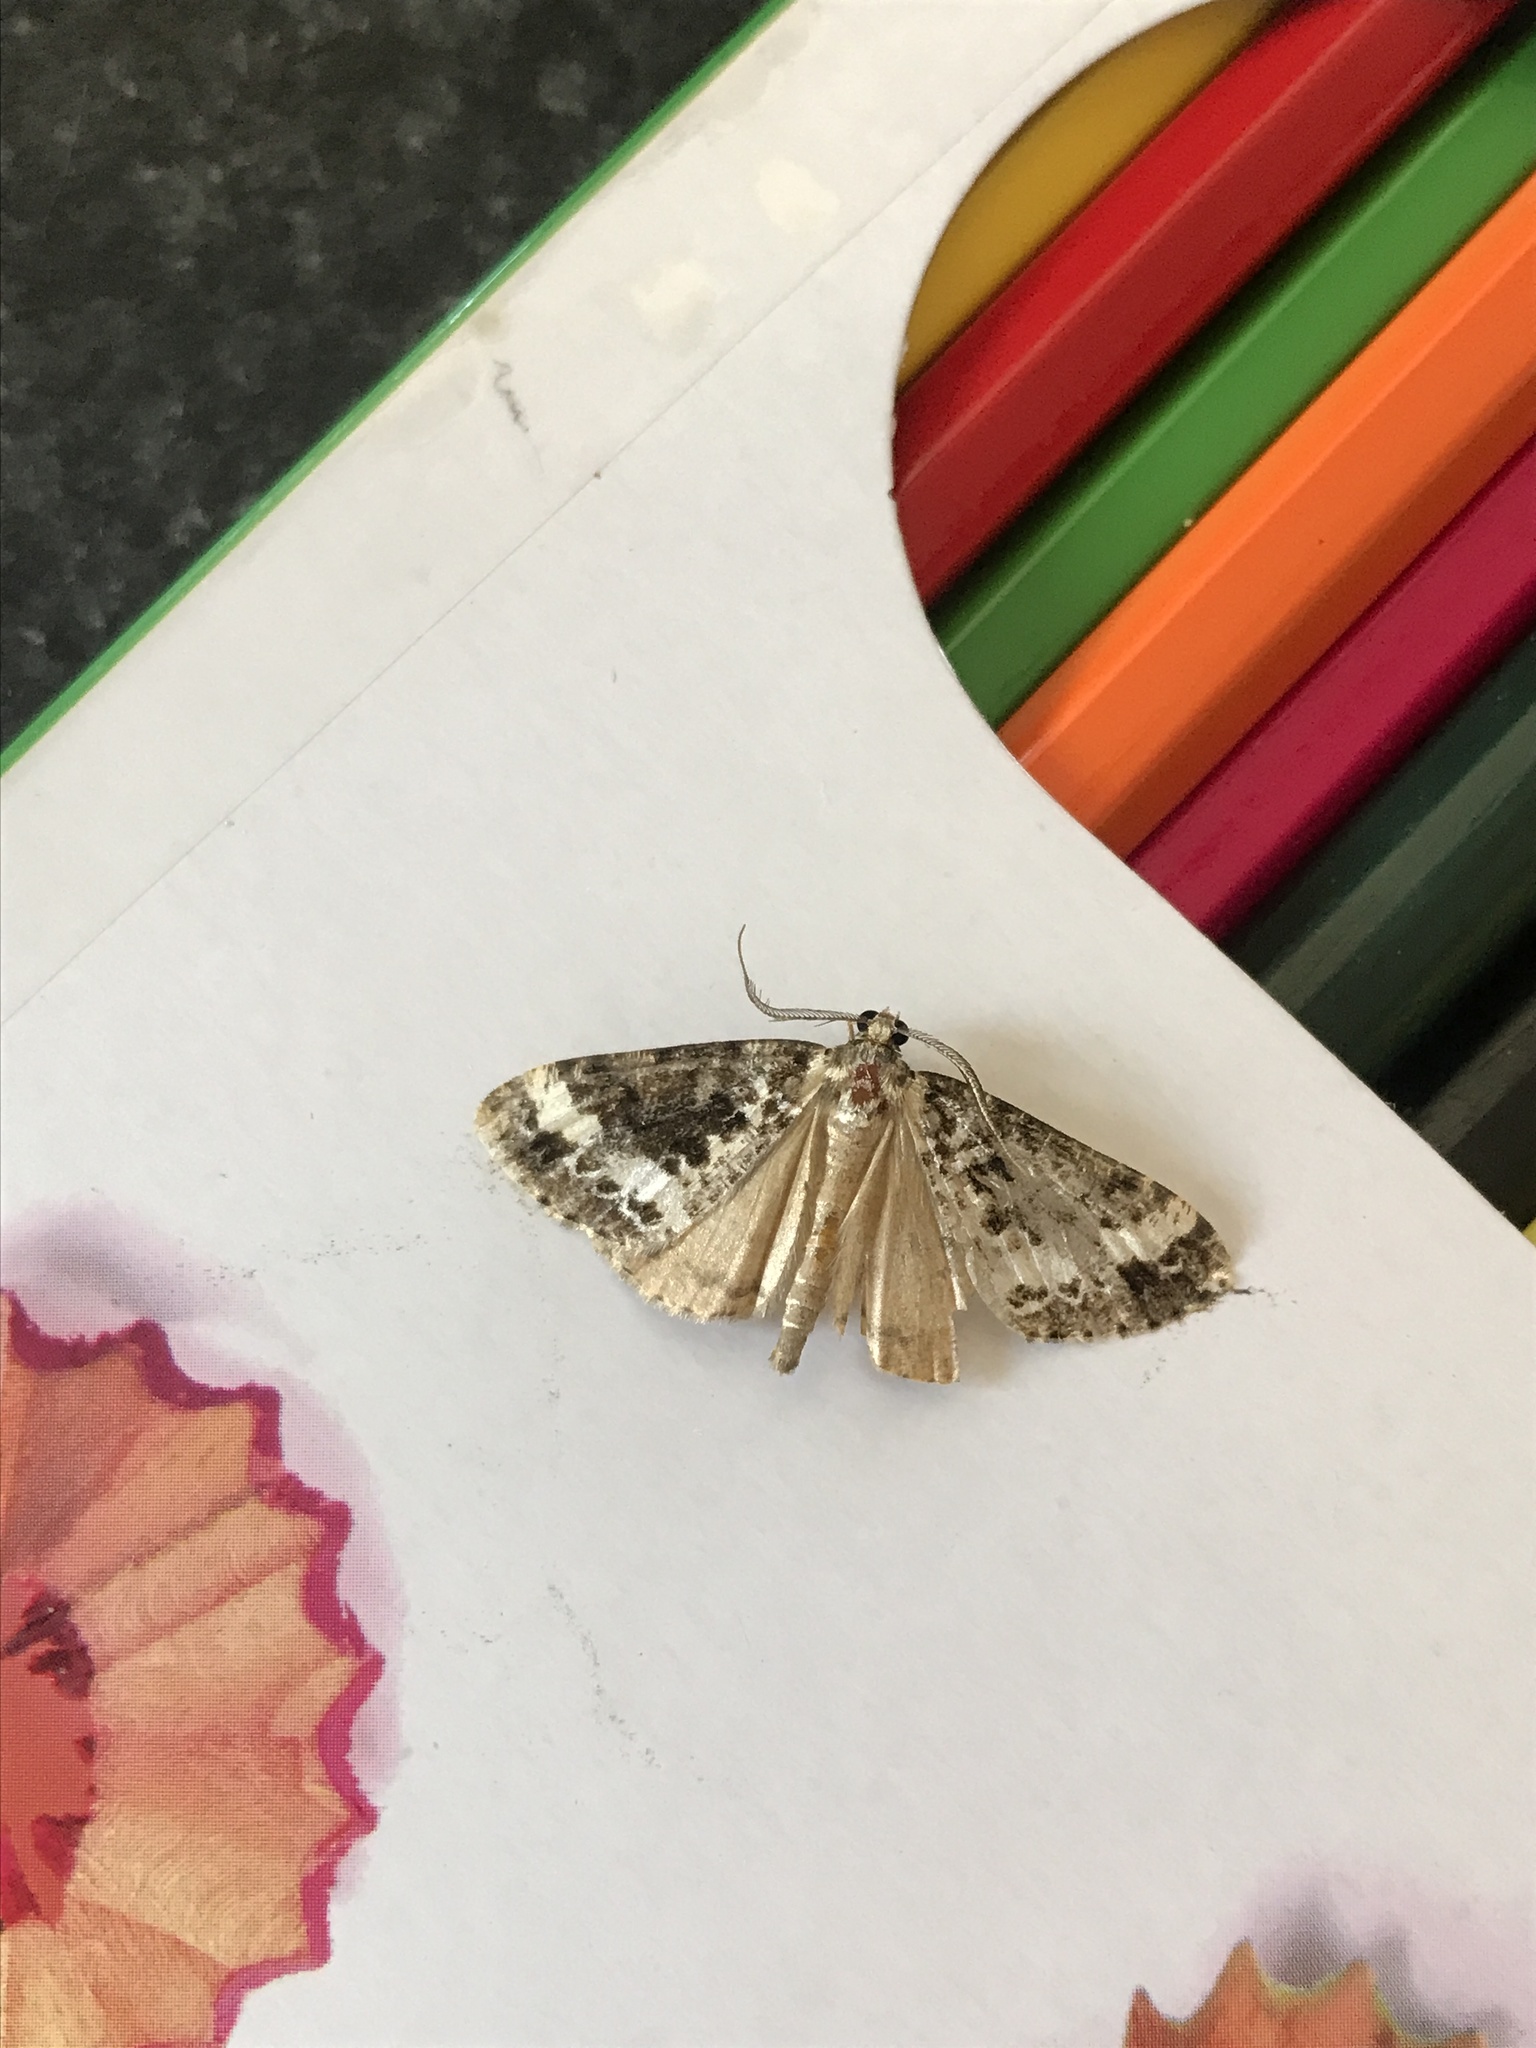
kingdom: Animalia
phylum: Arthropoda
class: Insecta
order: Lepidoptera
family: Geometridae
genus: Pseudocoremia
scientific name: Pseudocoremia leucelaea
